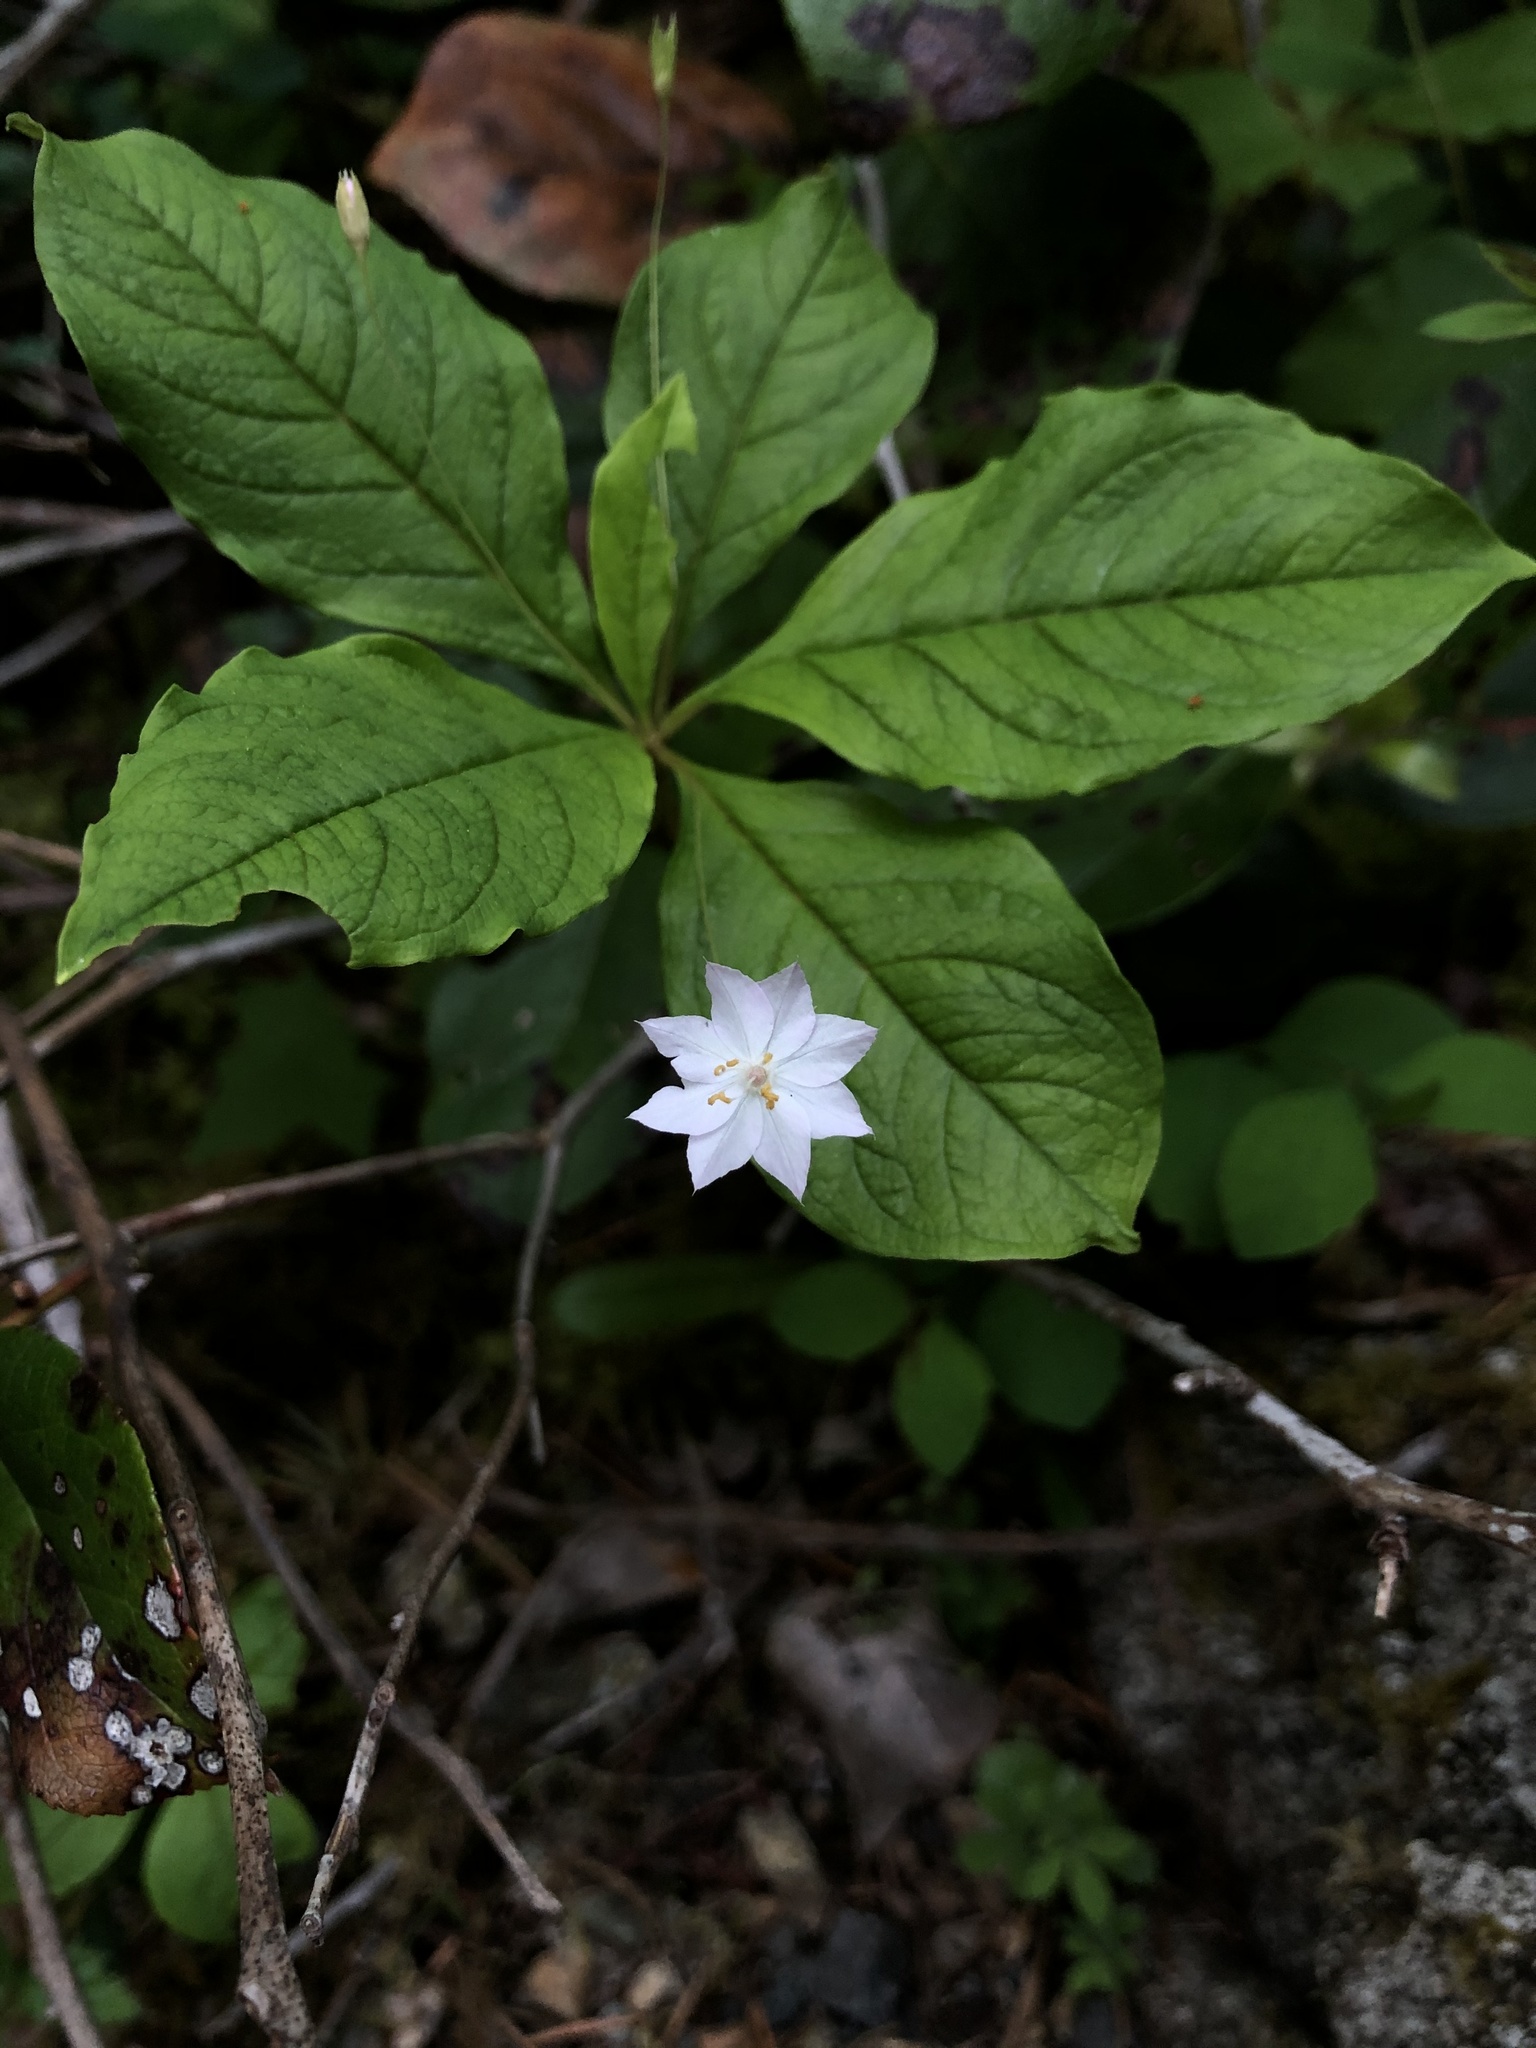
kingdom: Plantae
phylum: Tracheophyta
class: Magnoliopsida
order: Ericales
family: Primulaceae
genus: Lysimachia
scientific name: Lysimachia latifolia
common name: Pacific starflower
